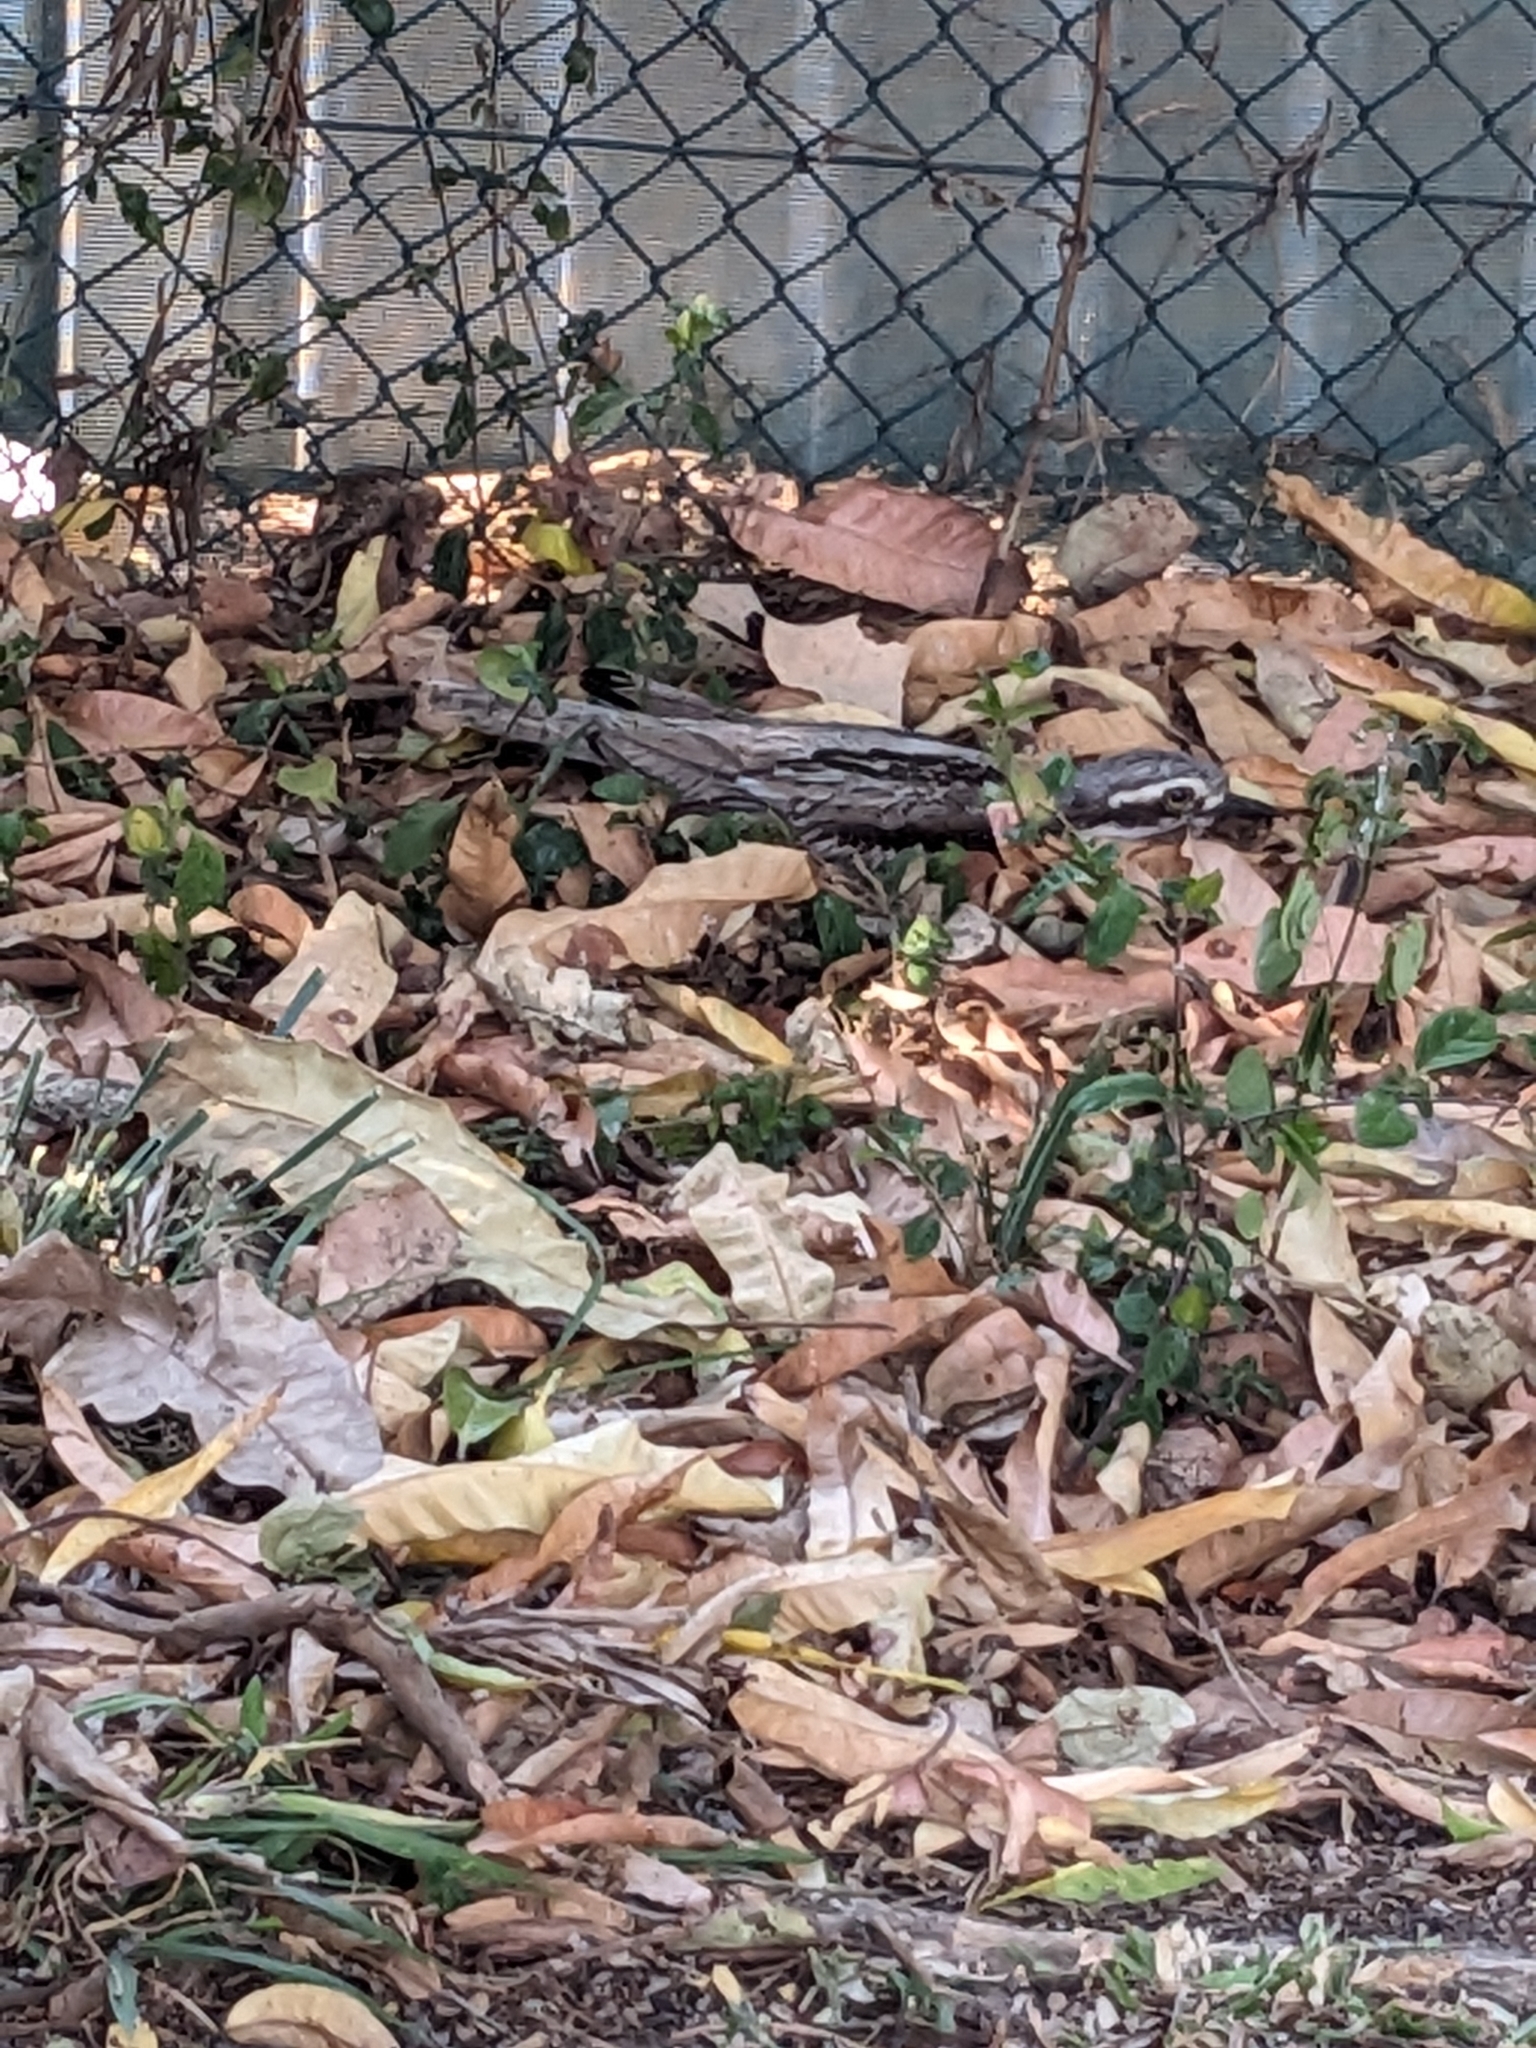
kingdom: Animalia
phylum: Chordata
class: Aves
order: Charadriiformes
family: Burhinidae
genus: Burhinus
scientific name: Burhinus grallarius
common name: Bush stone-curlew
